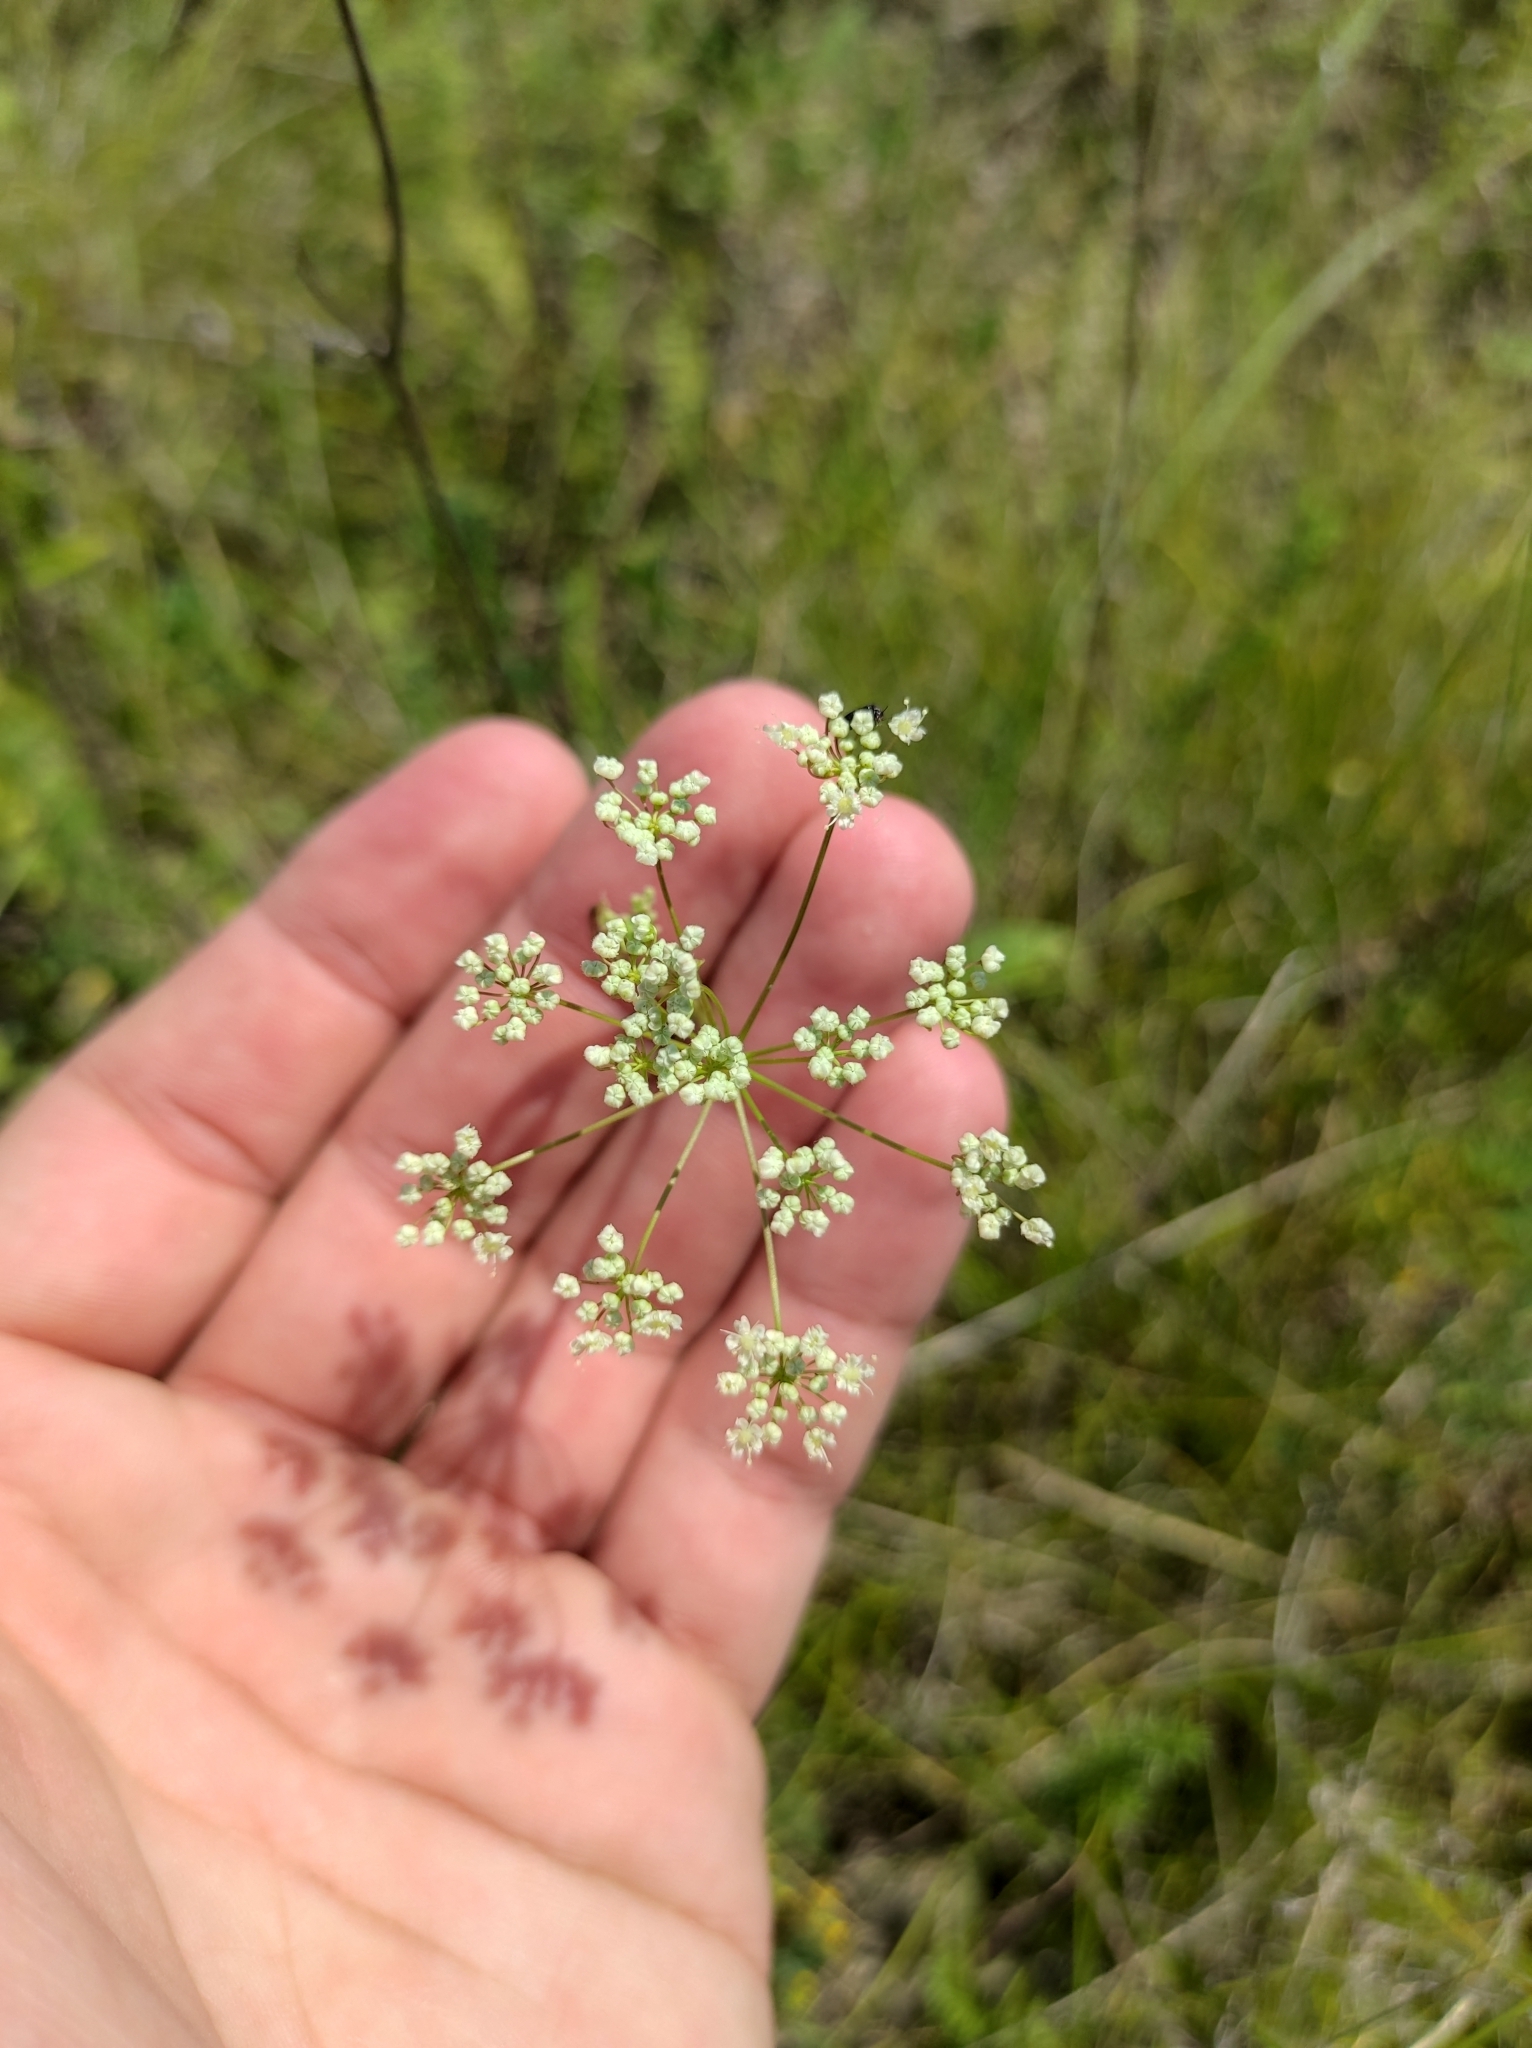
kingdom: Plantae
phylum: Tracheophyta
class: Magnoliopsida
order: Apiales
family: Apiaceae
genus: Pimpinella
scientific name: Pimpinella saxifraga
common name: Burnet-saxifrage
